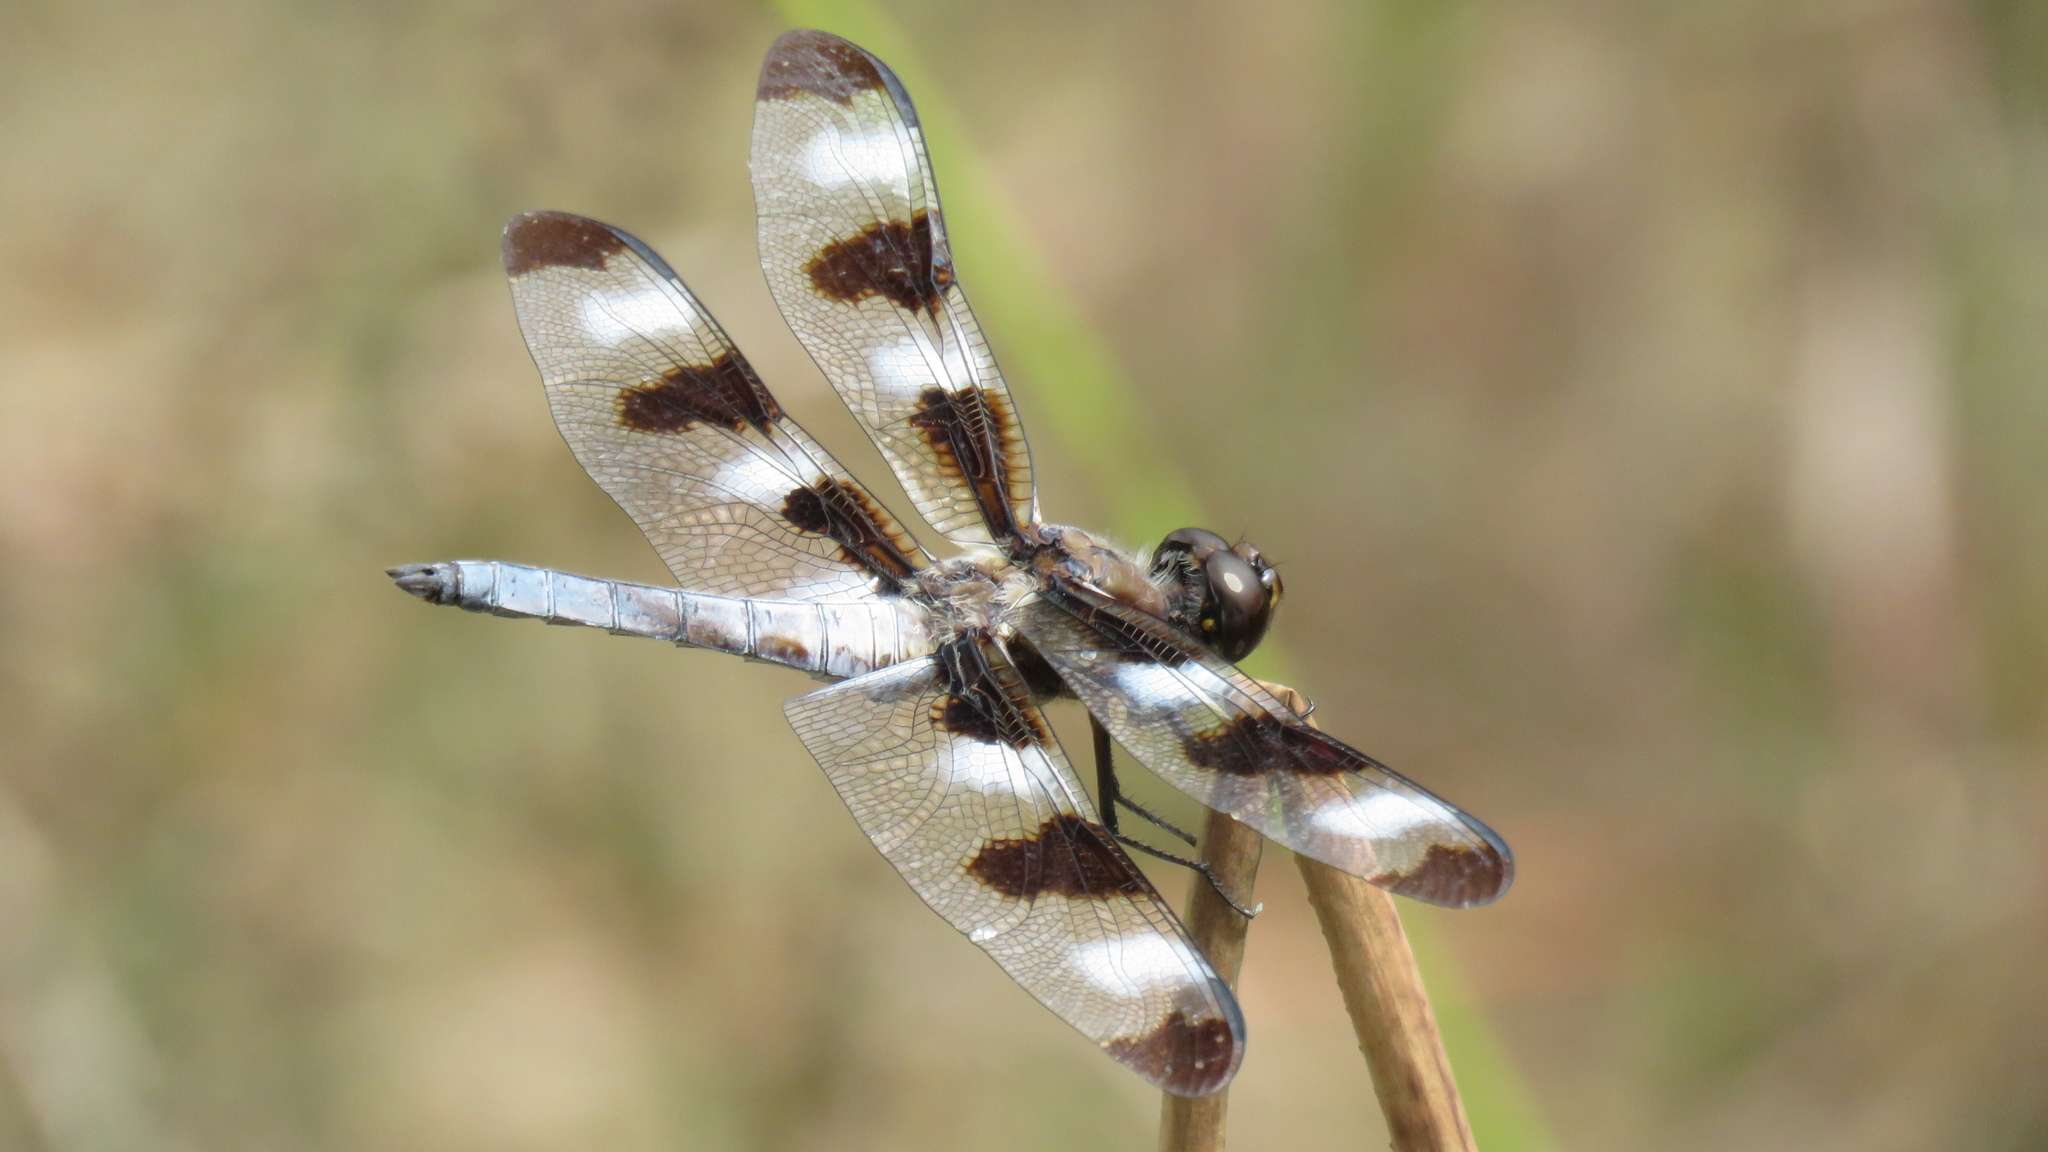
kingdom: Animalia
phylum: Arthropoda
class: Insecta
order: Odonata
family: Libellulidae
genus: Libellula
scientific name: Libellula pulchella
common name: Twelve-spotted skimmer
